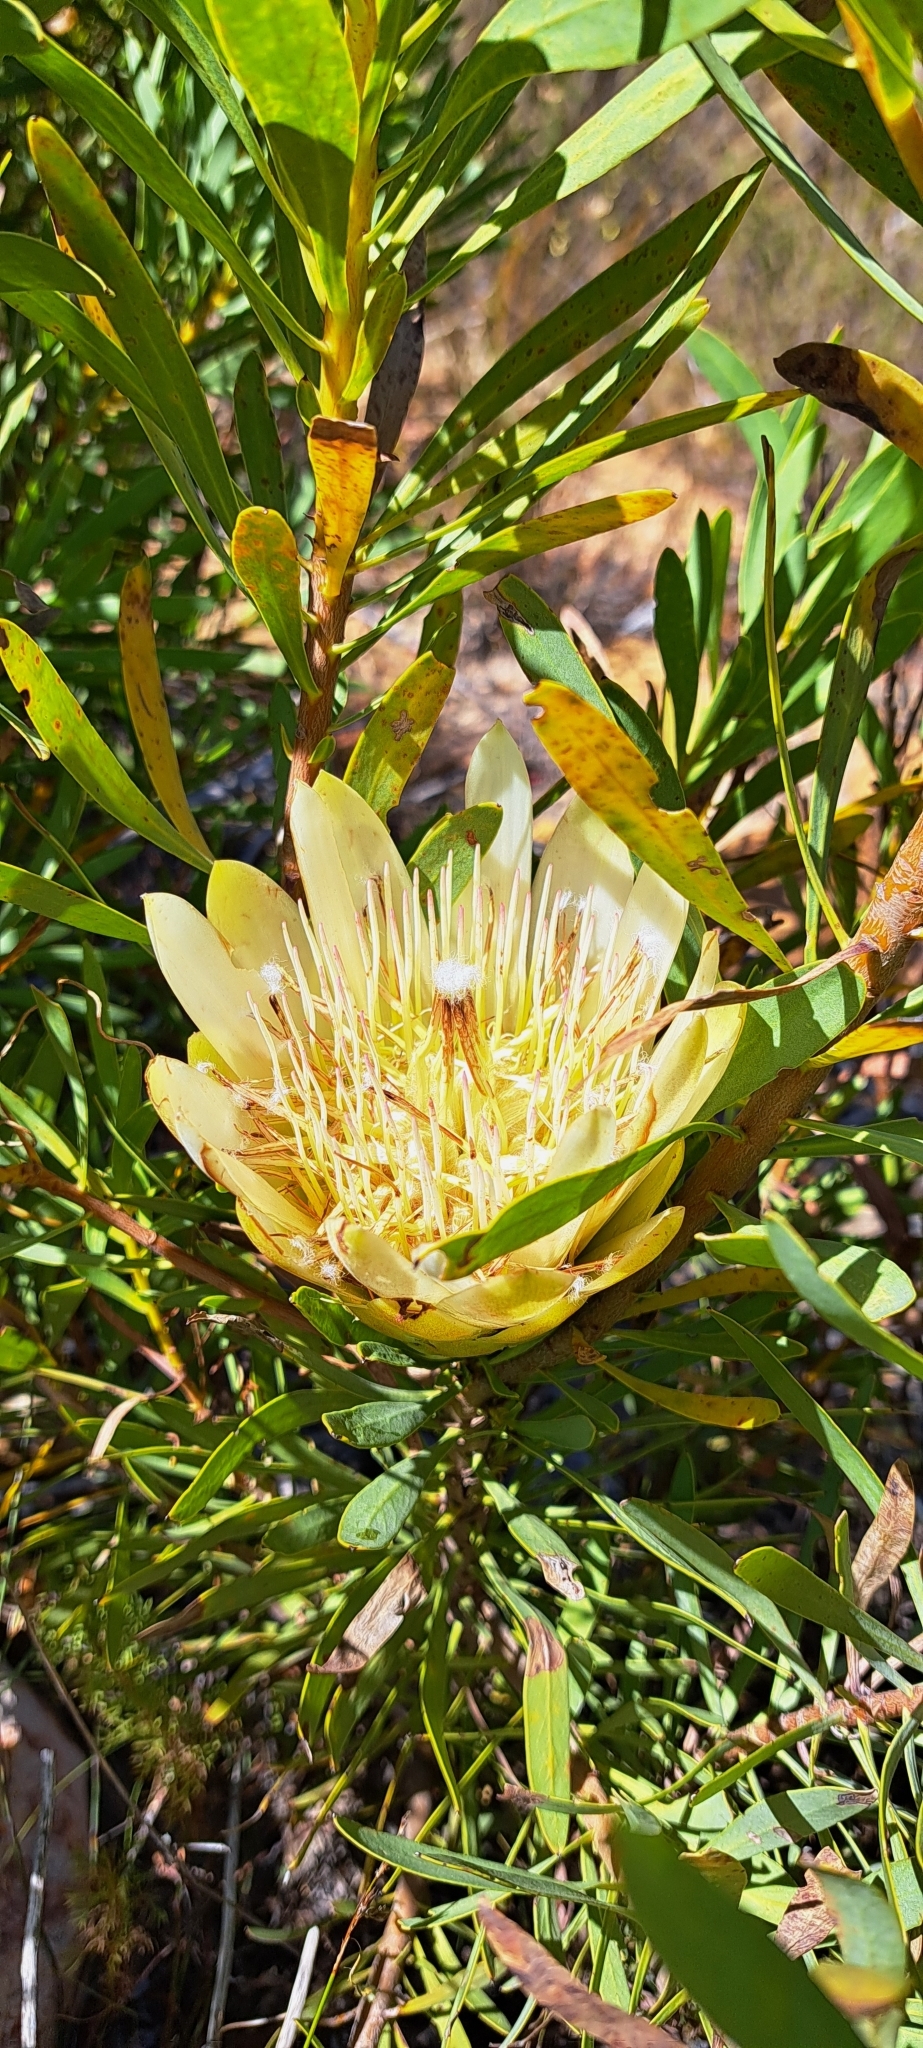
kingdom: Plantae
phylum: Tracheophyta
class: Magnoliopsida
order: Proteales
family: Proteaceae
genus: Protea
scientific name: Protea repens
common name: Sugarbush
